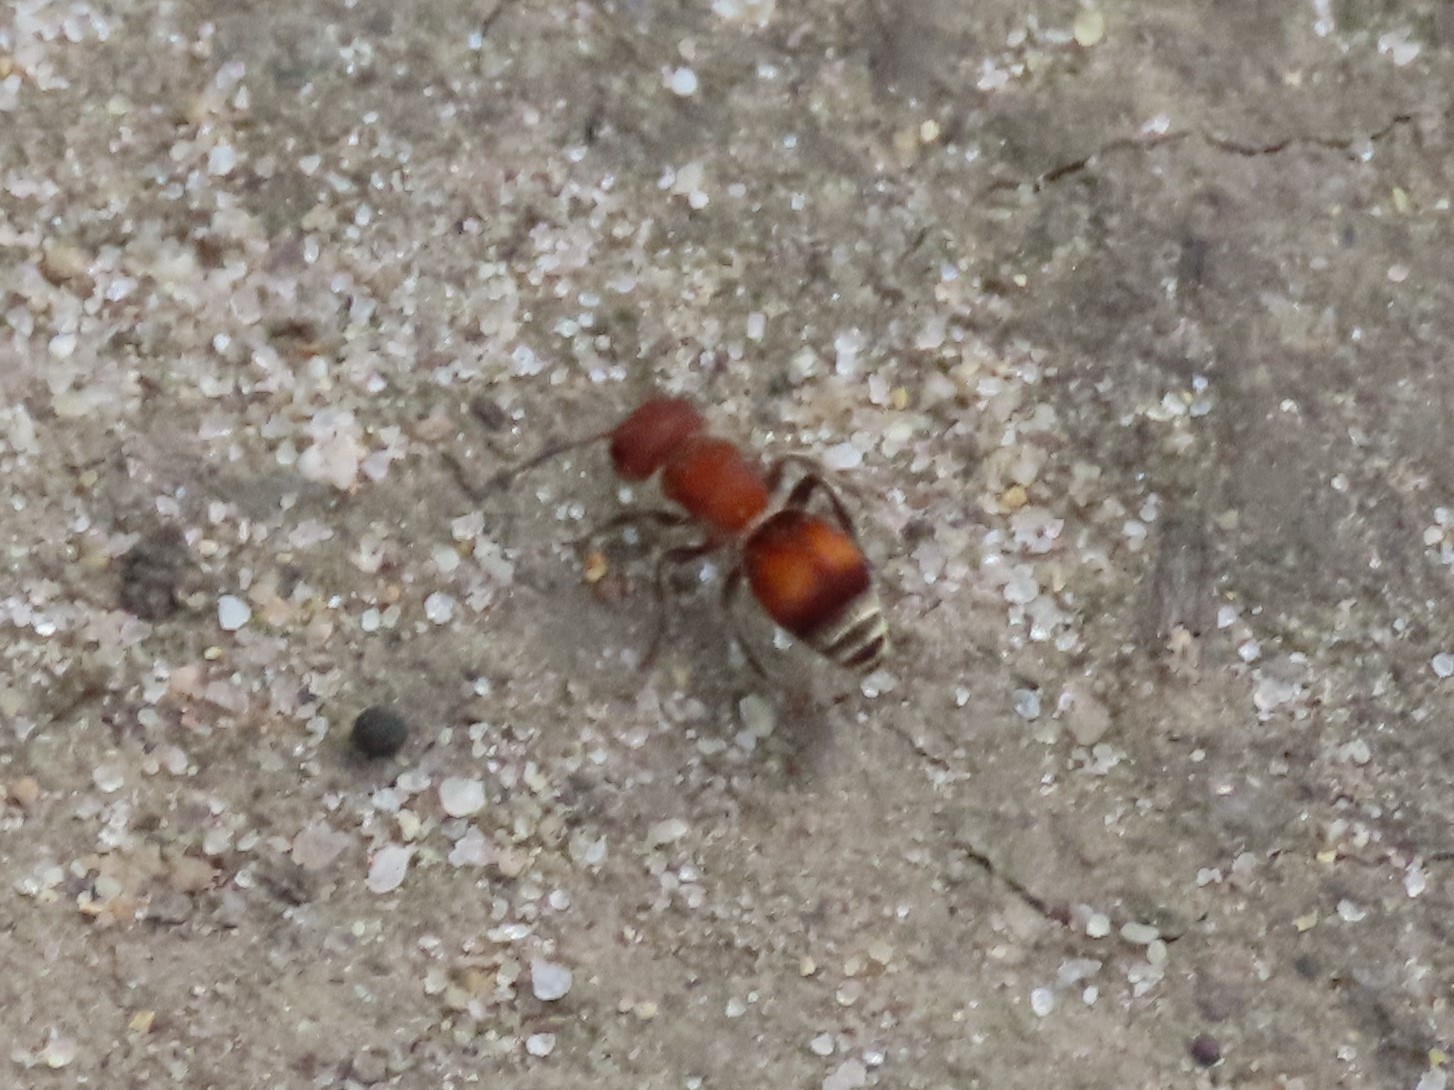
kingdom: Animalia
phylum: Arthropoda
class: Insecta
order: Hymenoptera
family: Mutillidae
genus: Pseudomethoca
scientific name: Pseudomethoca
